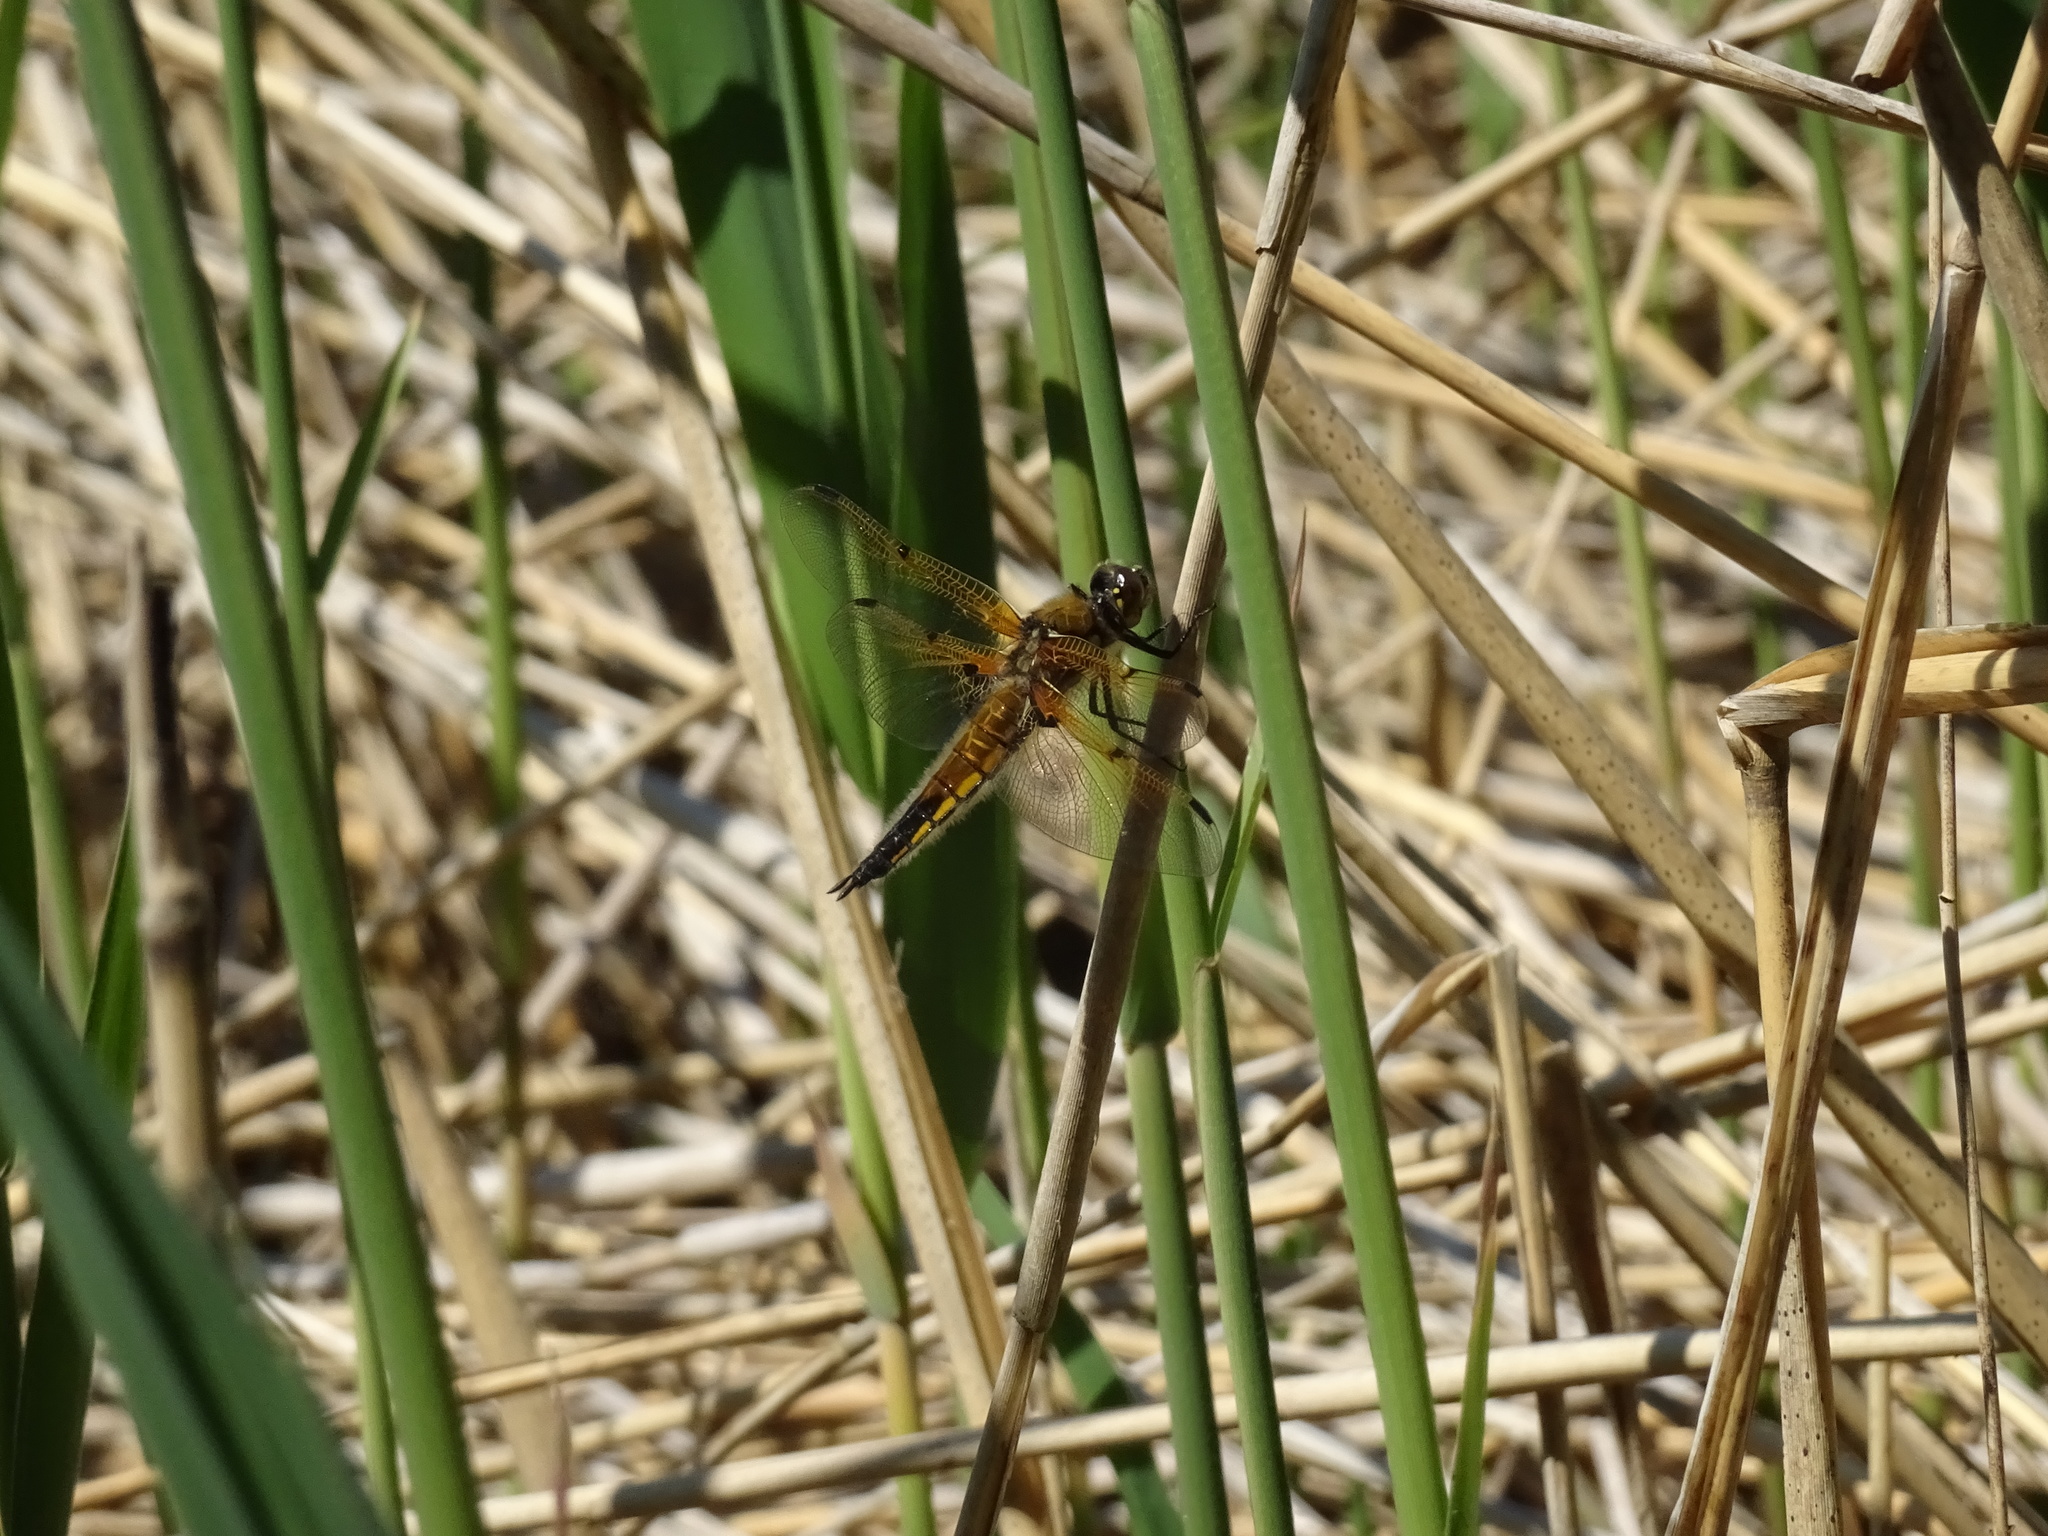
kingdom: Animalia
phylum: Arthropoda
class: Insecta
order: Odonata
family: Libellulidae
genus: Libellula
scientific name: Libellula quadrimaculata
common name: Four-spotted chaser
